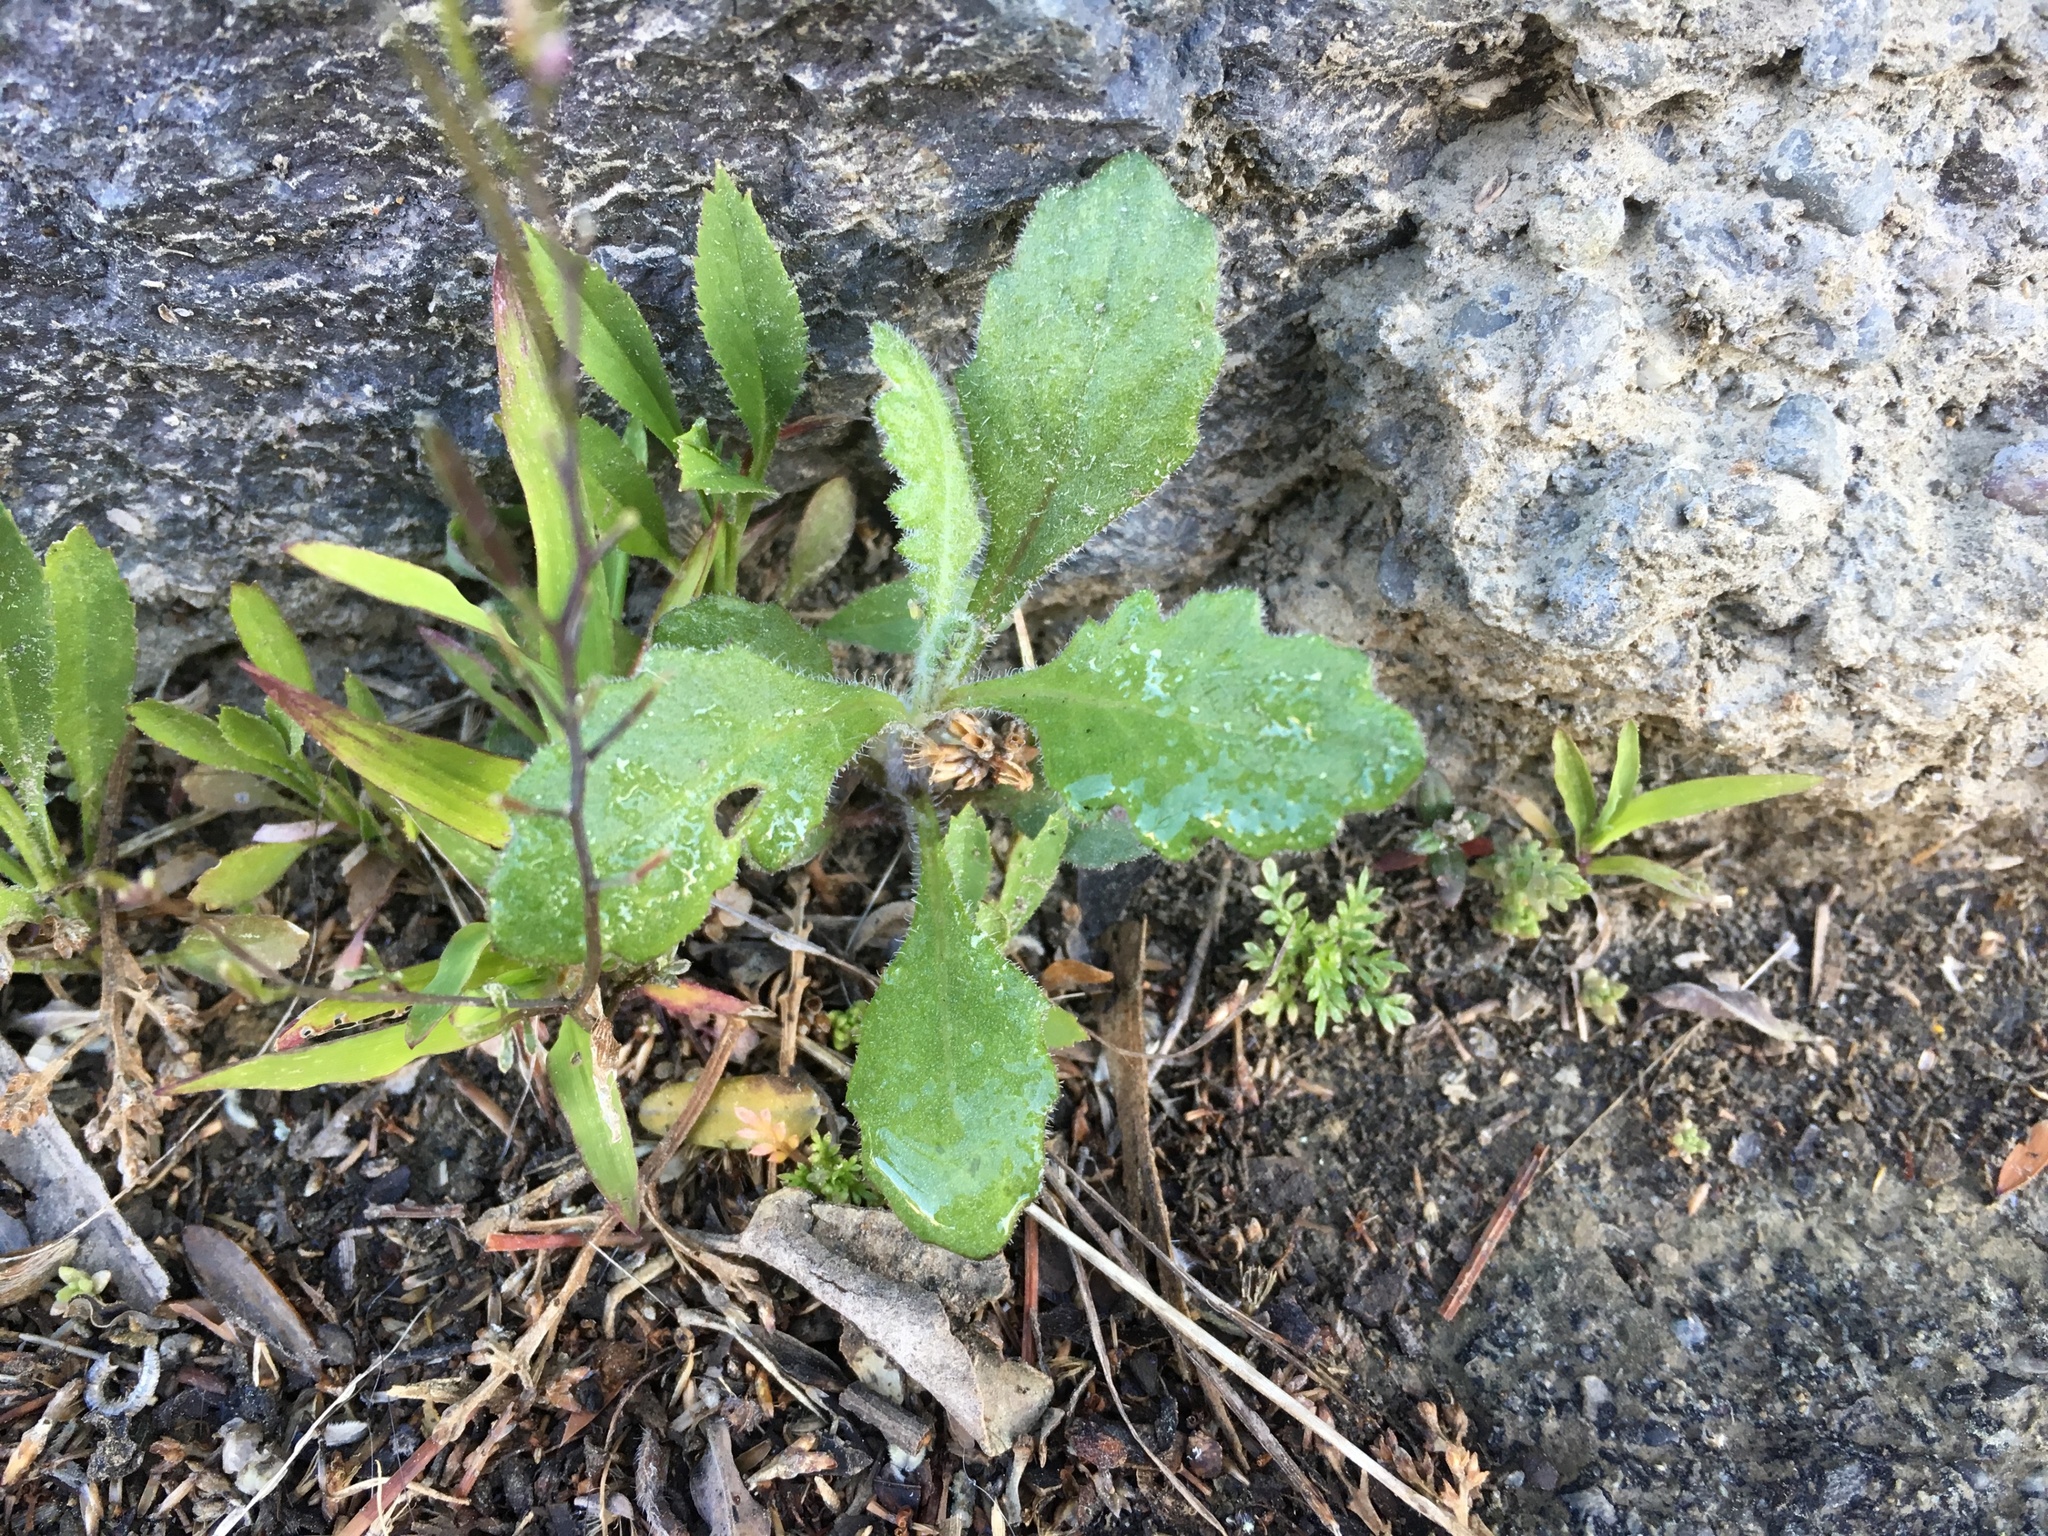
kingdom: Plantae
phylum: Tracheophyta
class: Magnoliopsida
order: Asterales
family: Asteraceae
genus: Senecio
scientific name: Senecio glomeratus
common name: Cutleaf burnweed
